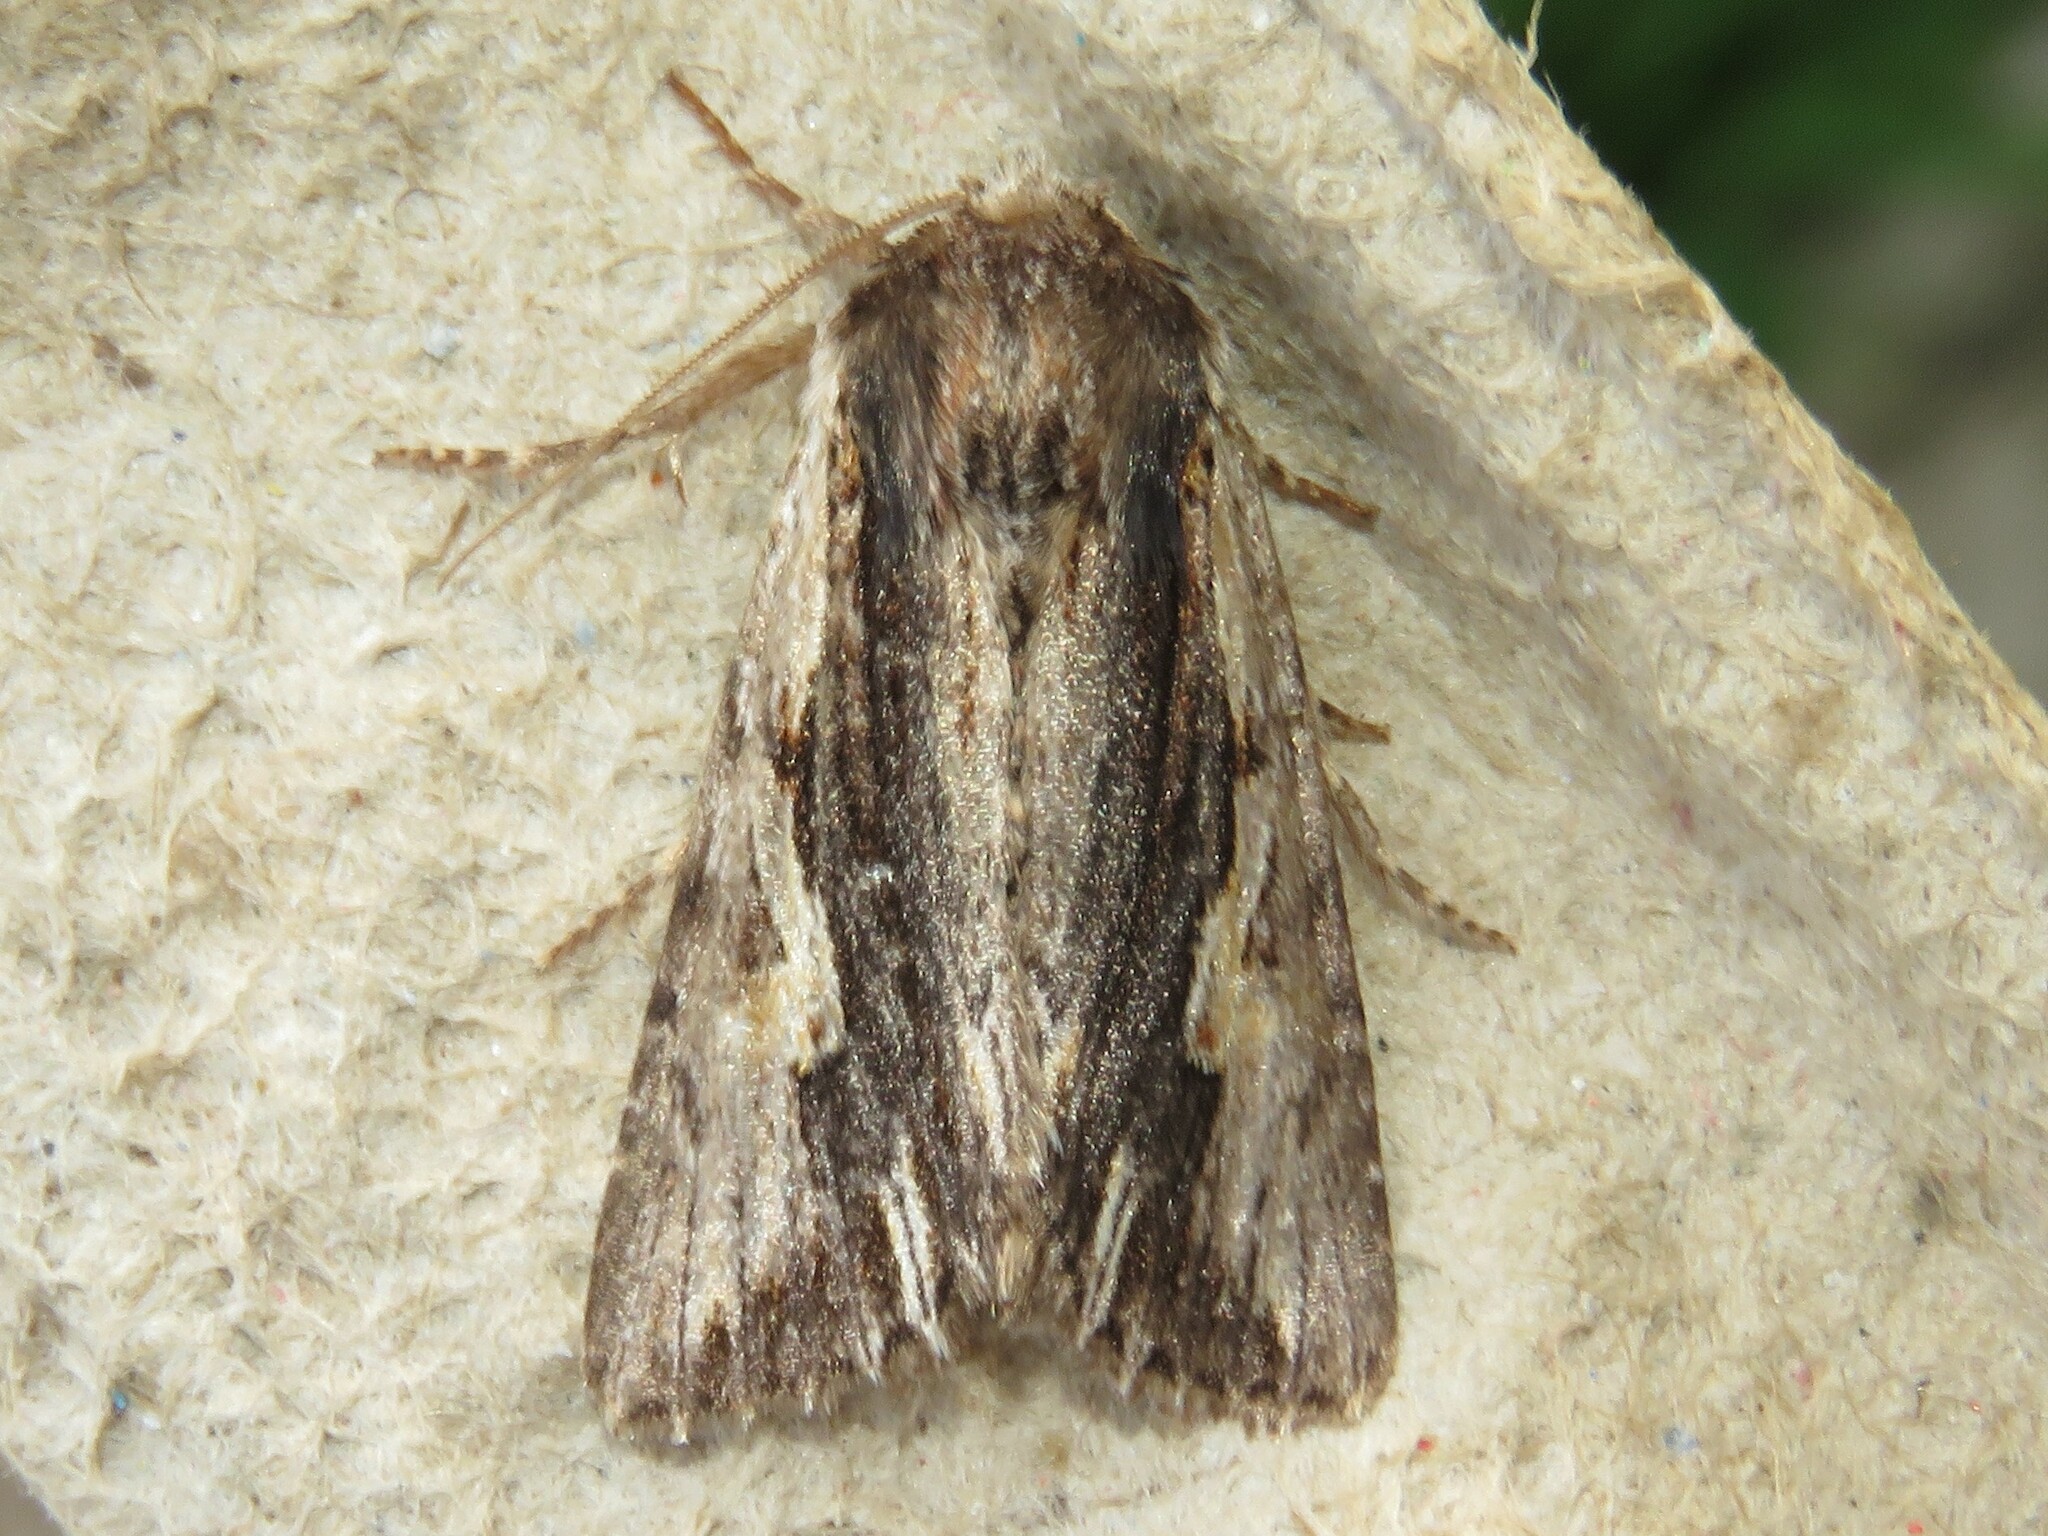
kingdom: Animalia
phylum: Arthropoda
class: Insecta
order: Lepidoptera
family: Noctuidae
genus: Achatia
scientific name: Achatia evicta
